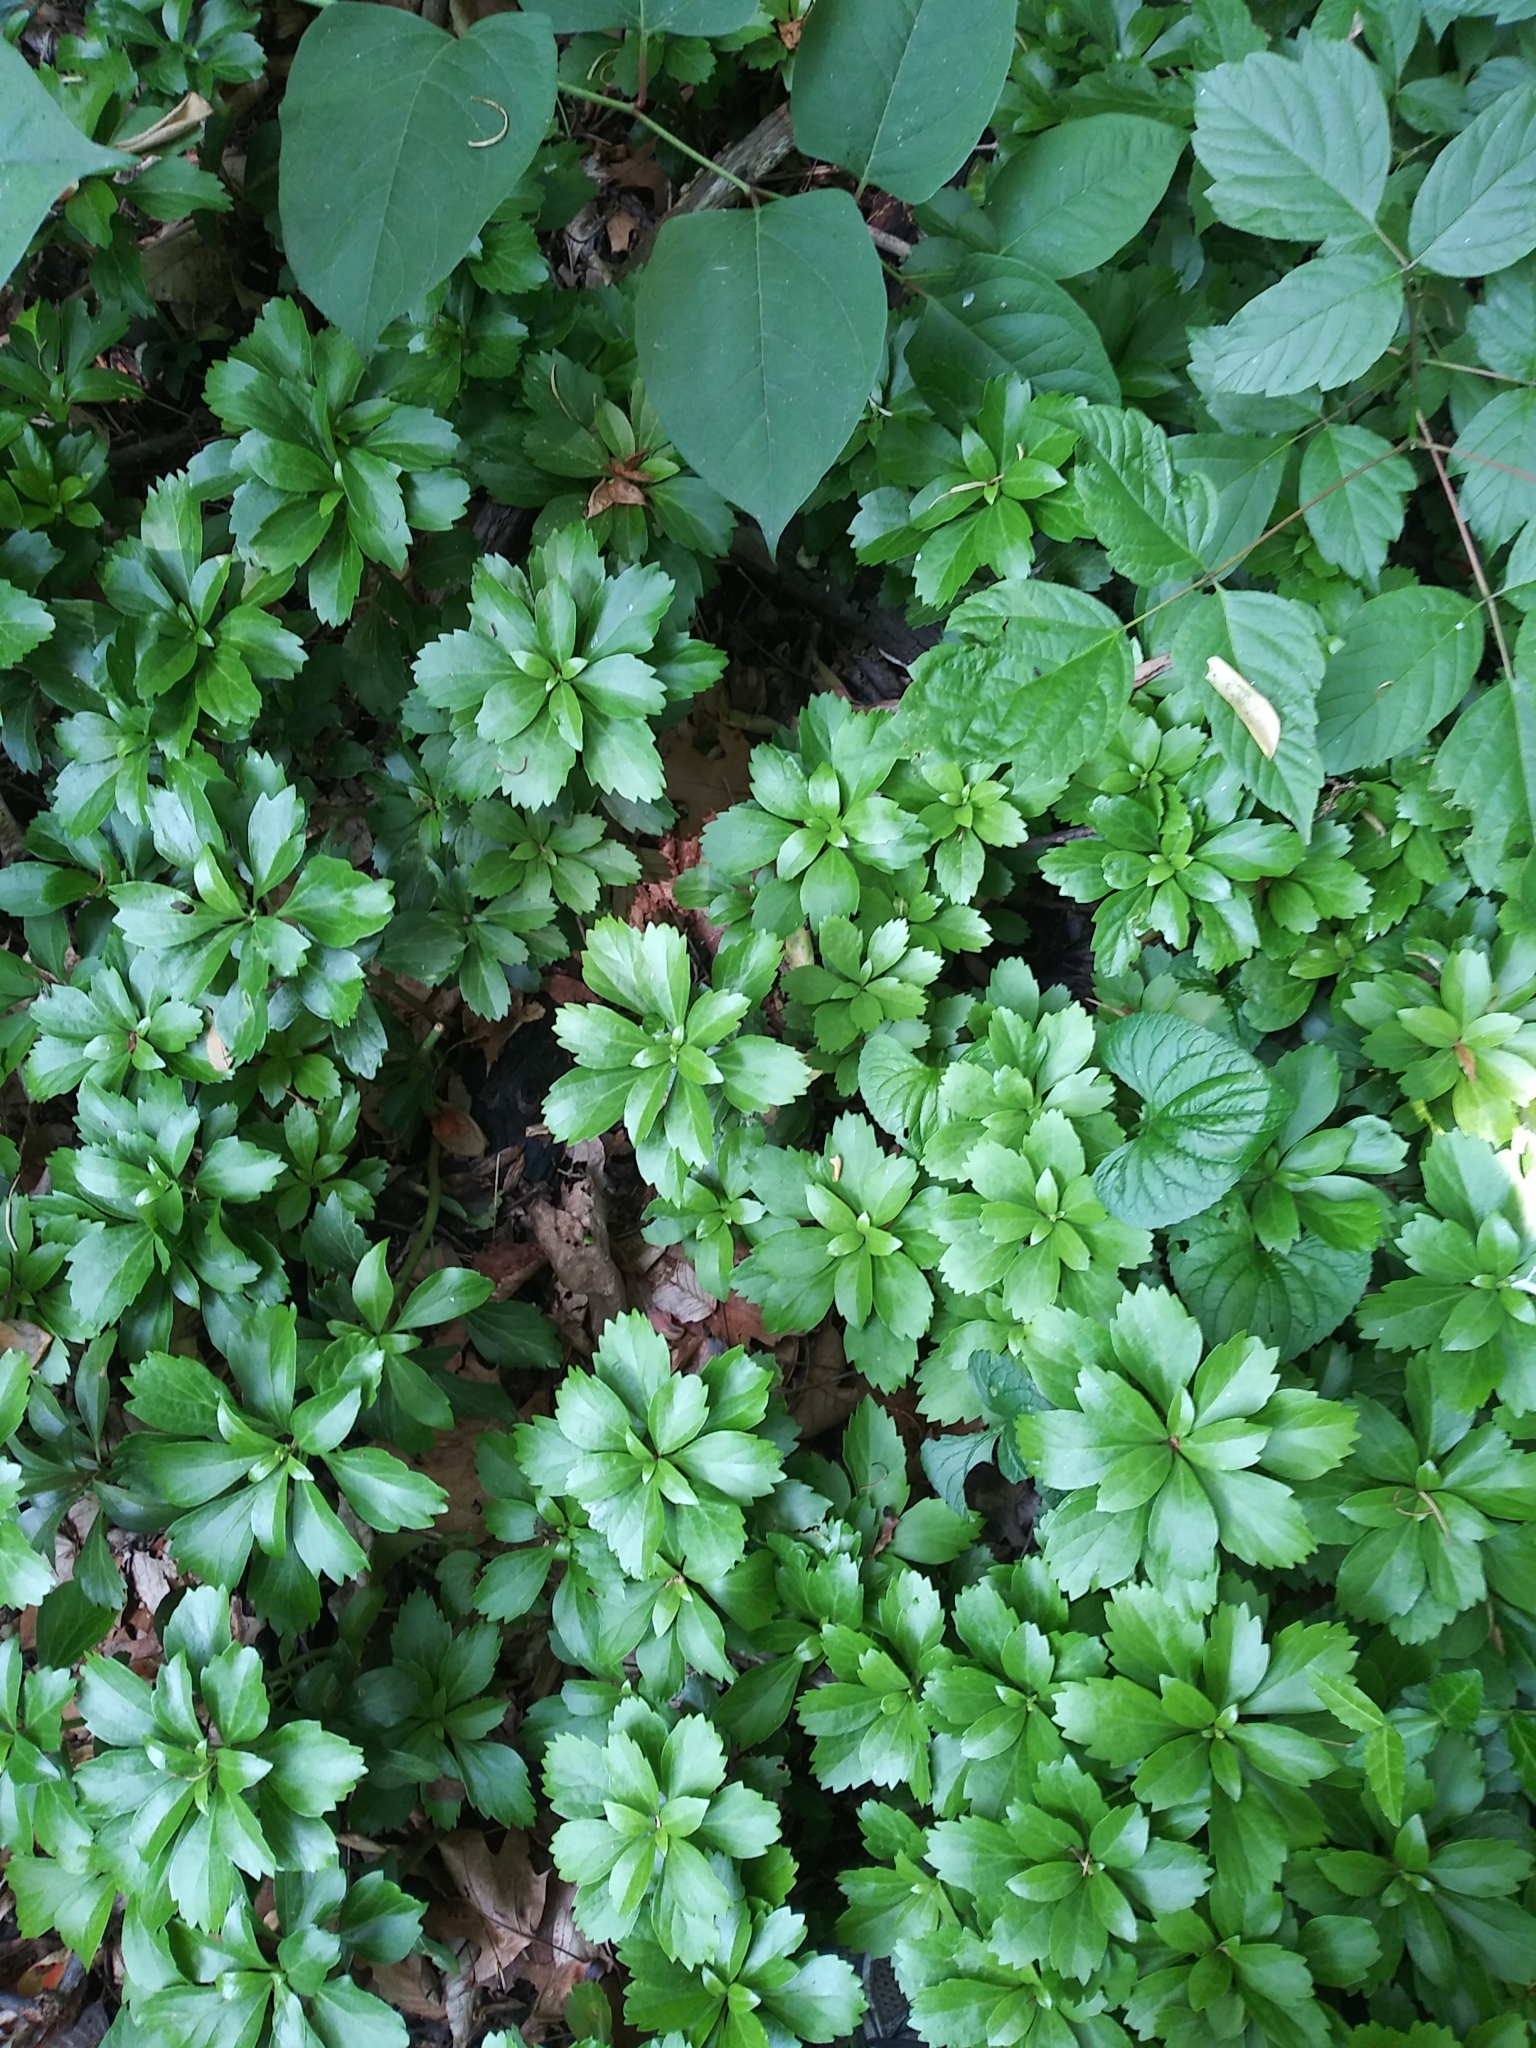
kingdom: Plantae
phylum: Tracheophyta
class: Magnoliopsida
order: Buxales
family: Buxaceae
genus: Pachysandra
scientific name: Pachysandra terminalis
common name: Japanese pachysandra
